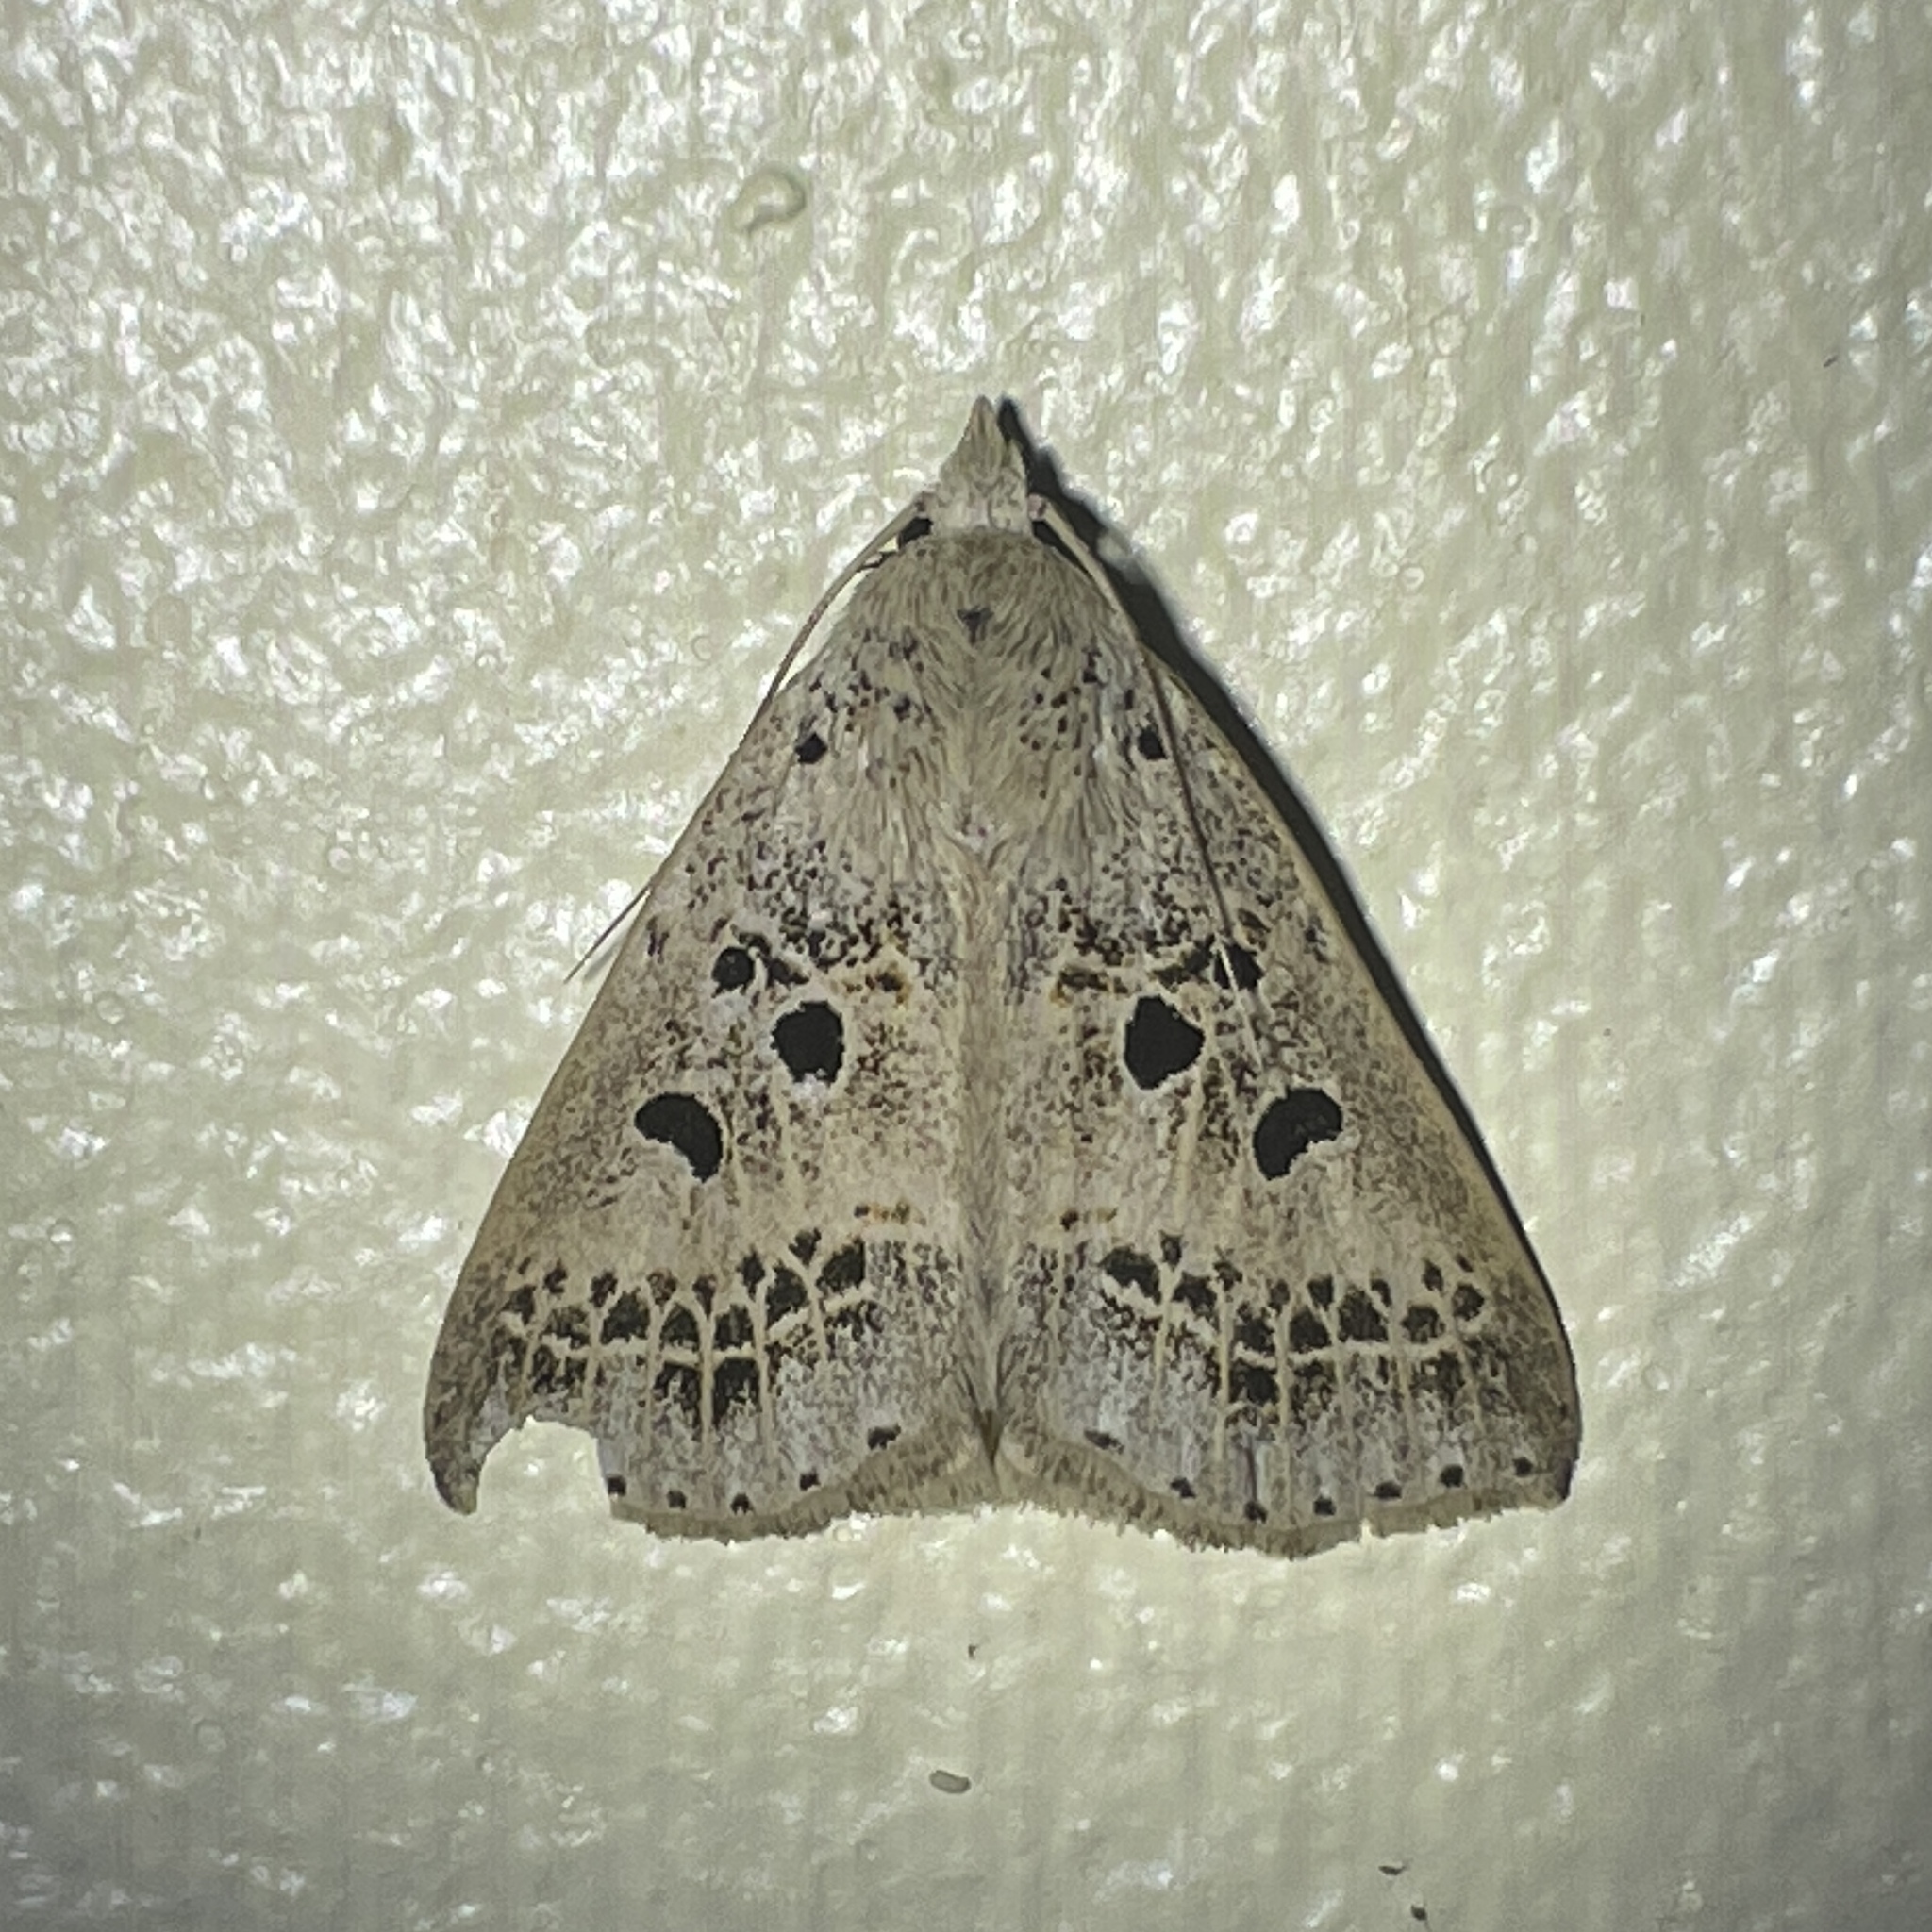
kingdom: Animalia
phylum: Arthropoda
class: Insecta
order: Lepidoptera
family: Erebidae
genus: Scolecocampa
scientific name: Scolecocampa Herminodes atrosignata
